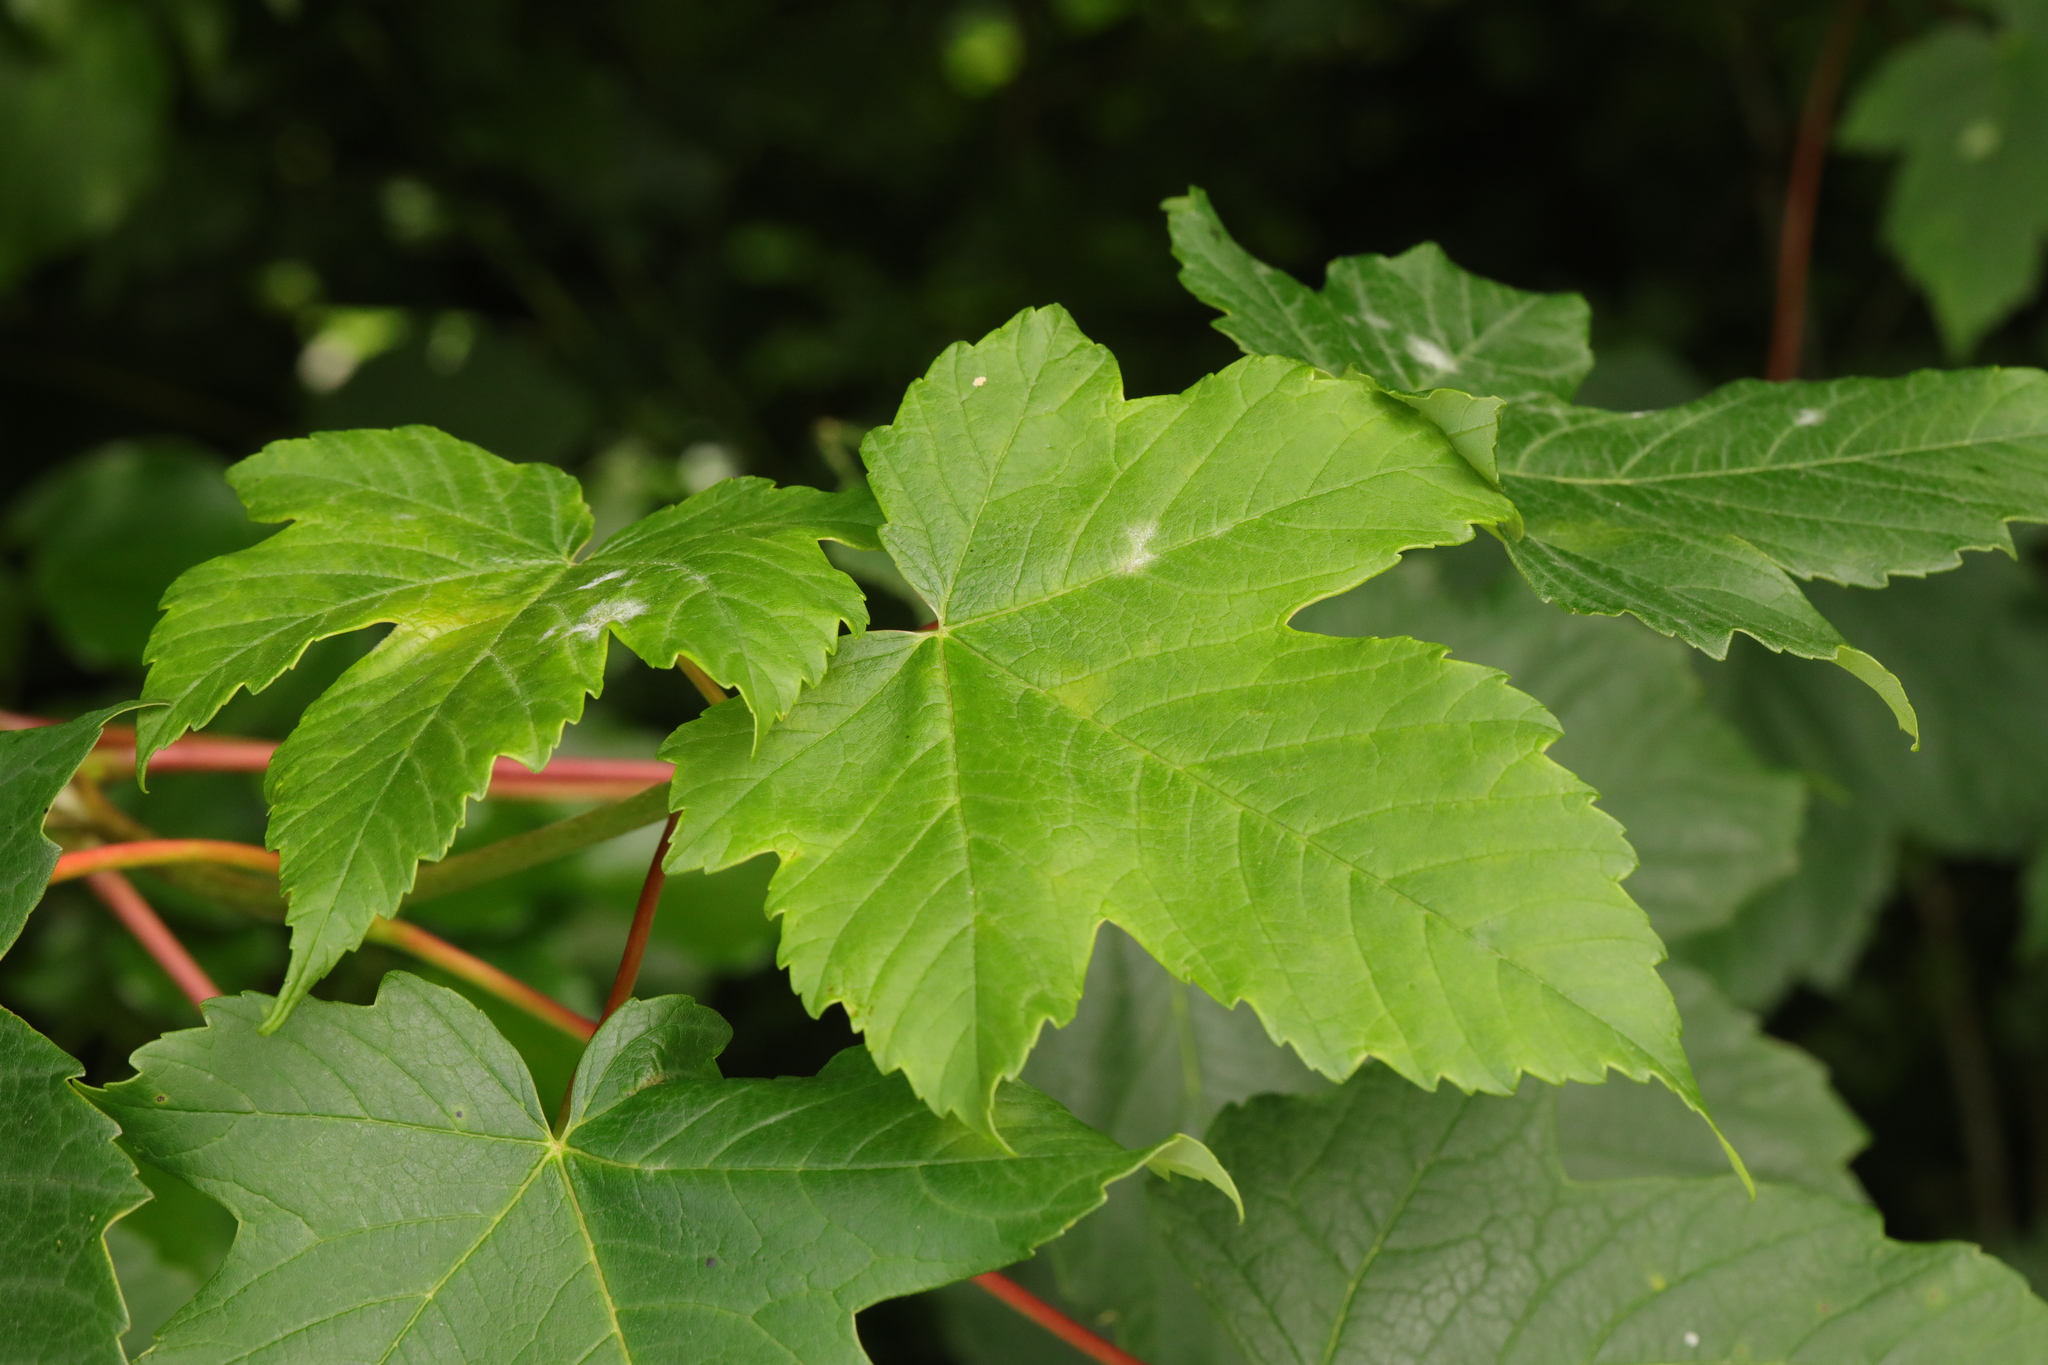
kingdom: Plantae
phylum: Tracheophyta
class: Magnoliopsida
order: Sapindales
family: Sapindaceae
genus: Acer
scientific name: Acer pseudoplatanus
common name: Sycamore
